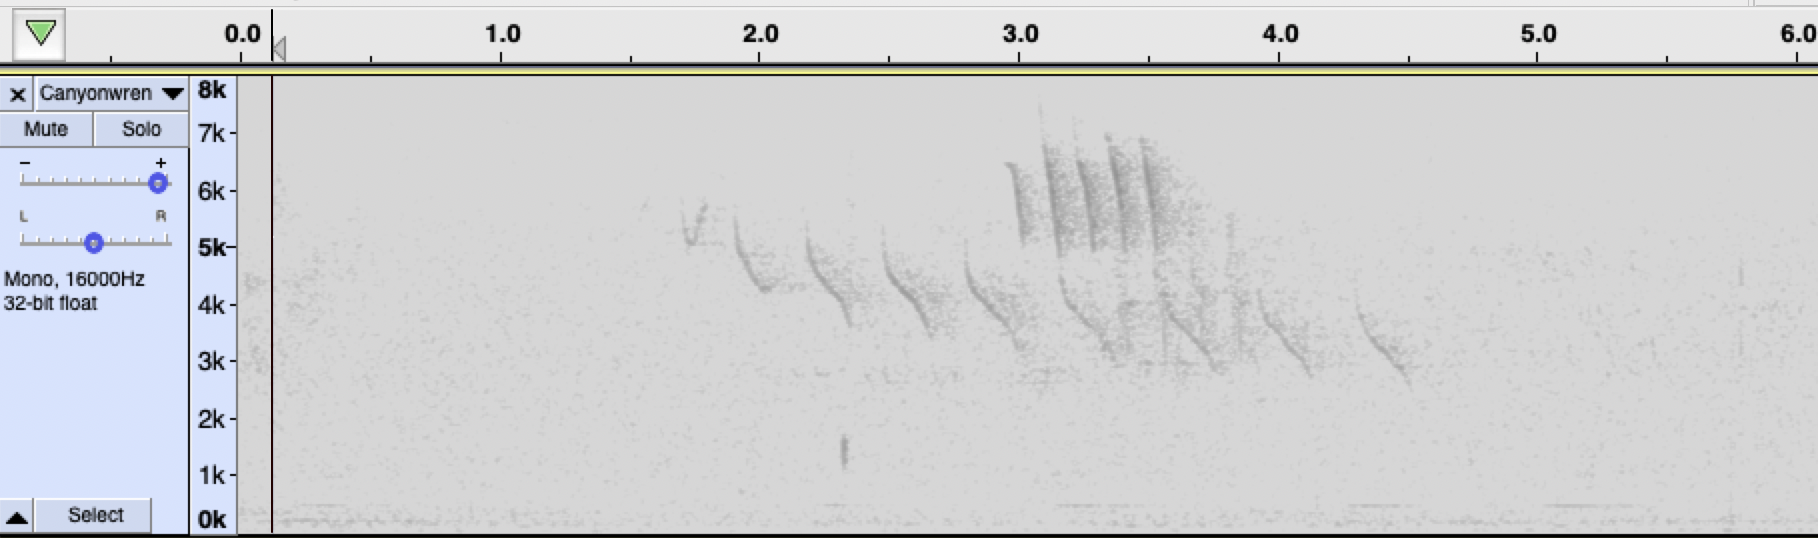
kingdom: Animalia
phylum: Chordata
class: Aves
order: Passeriformes
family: Troglodytidae
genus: Catherpes
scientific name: Catherpes mexicanus
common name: Canyon wren
